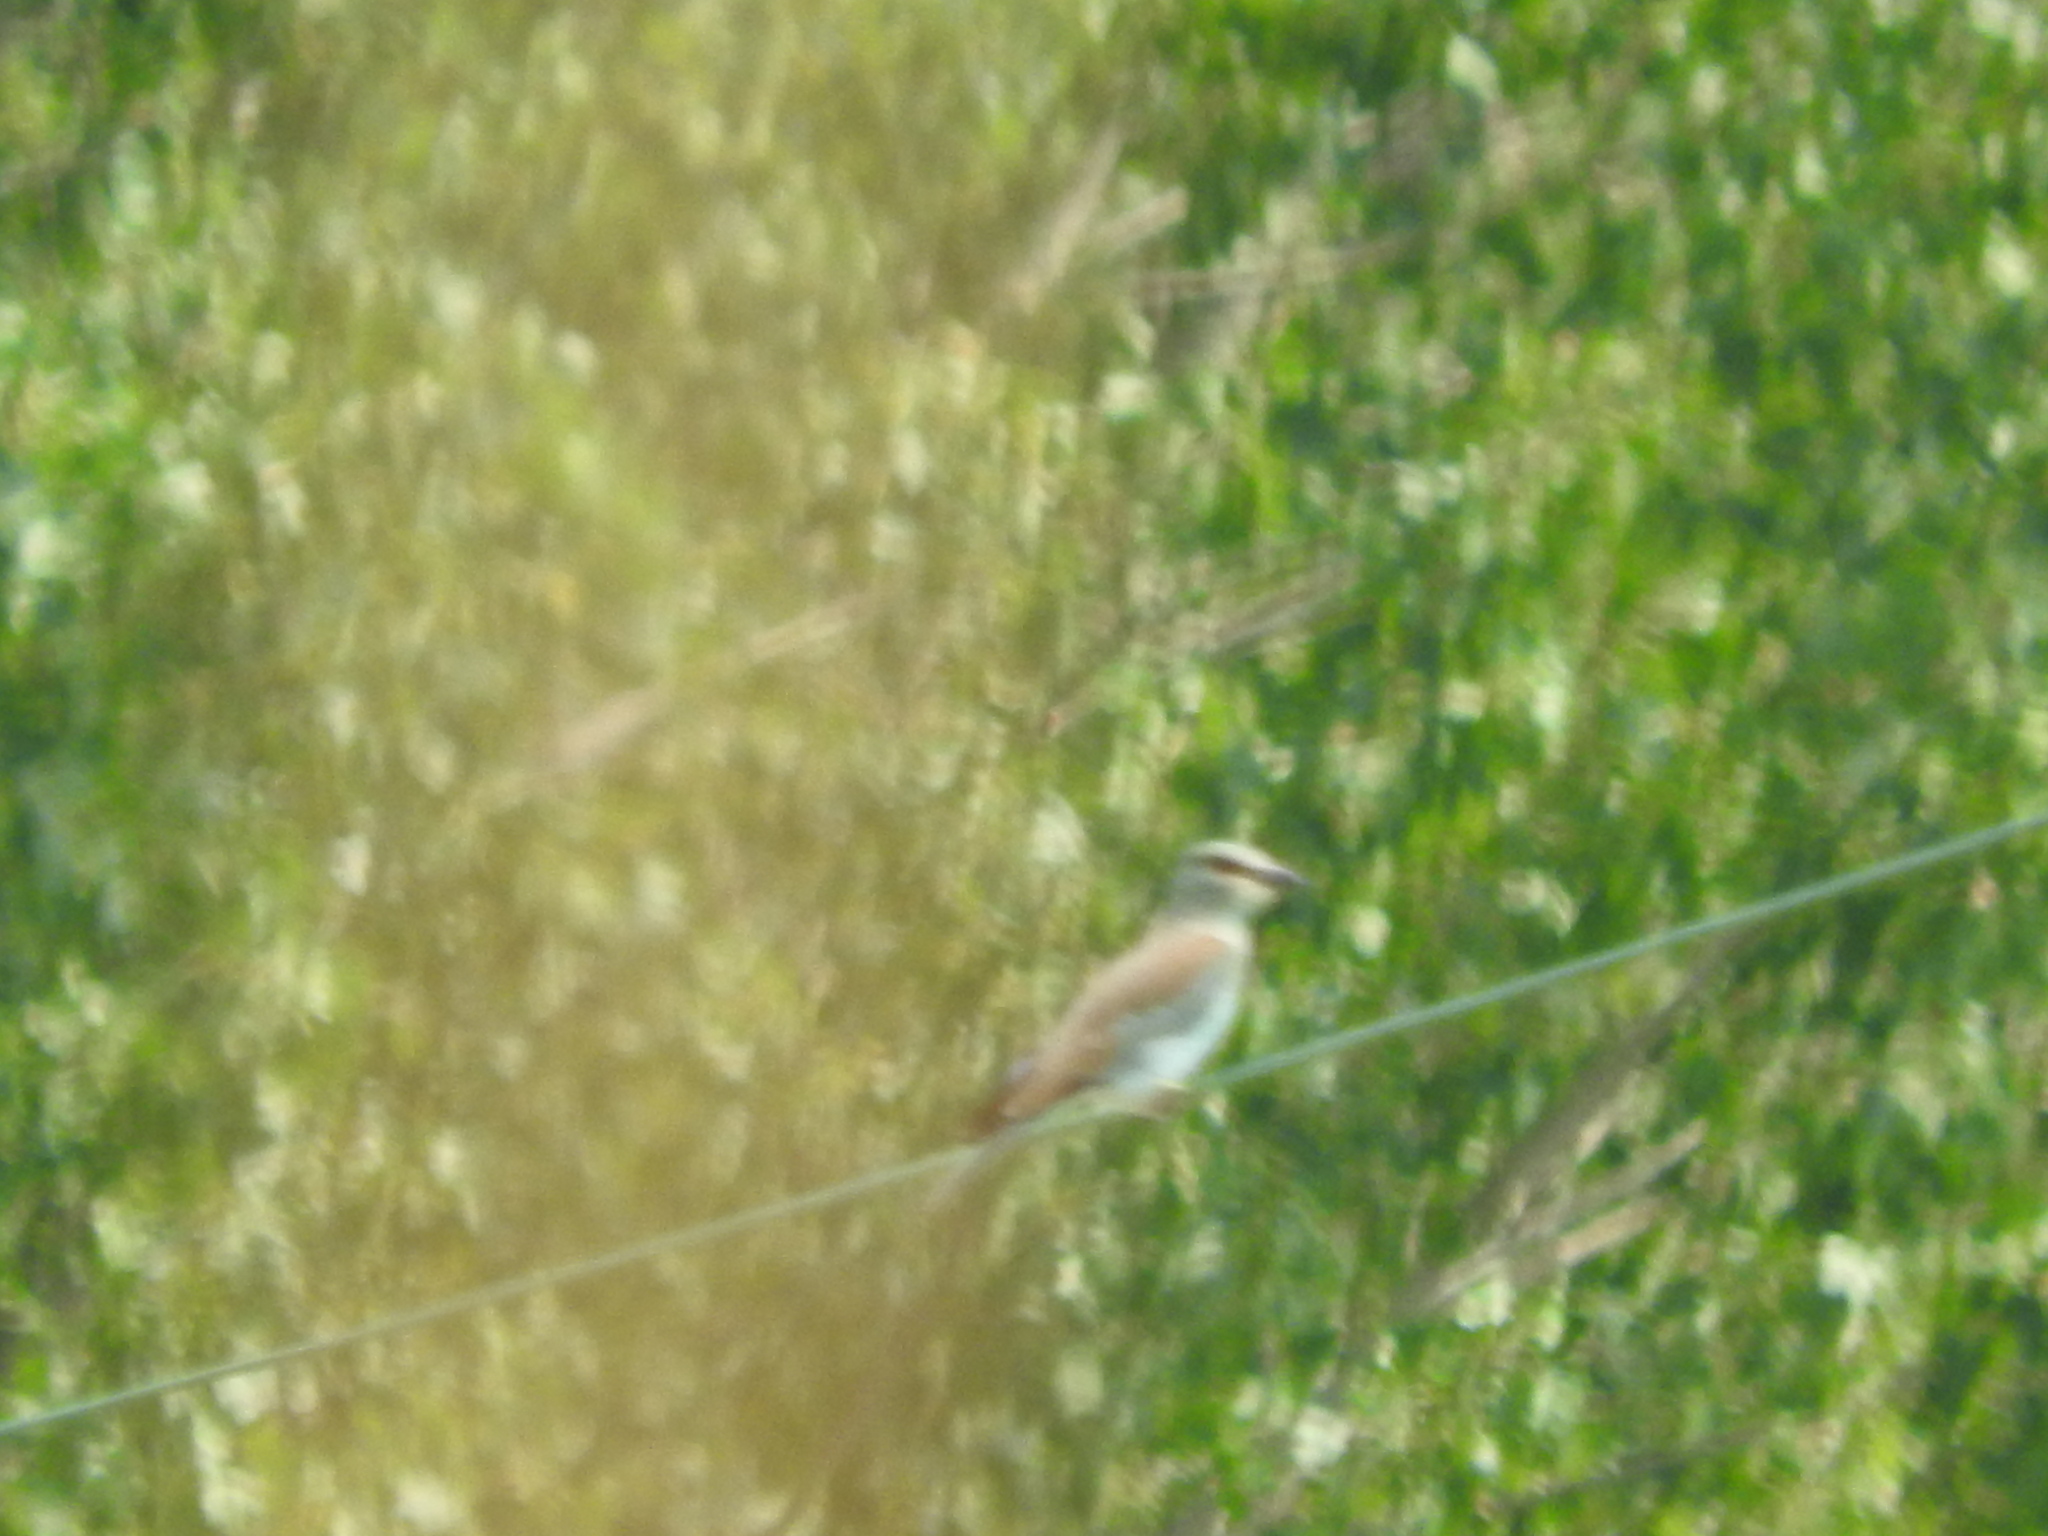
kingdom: Animalia
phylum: Chordata
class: Aves
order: Coraciiformes
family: Coraciidae
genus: Coracias
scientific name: Coracias garrulus
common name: European roller
